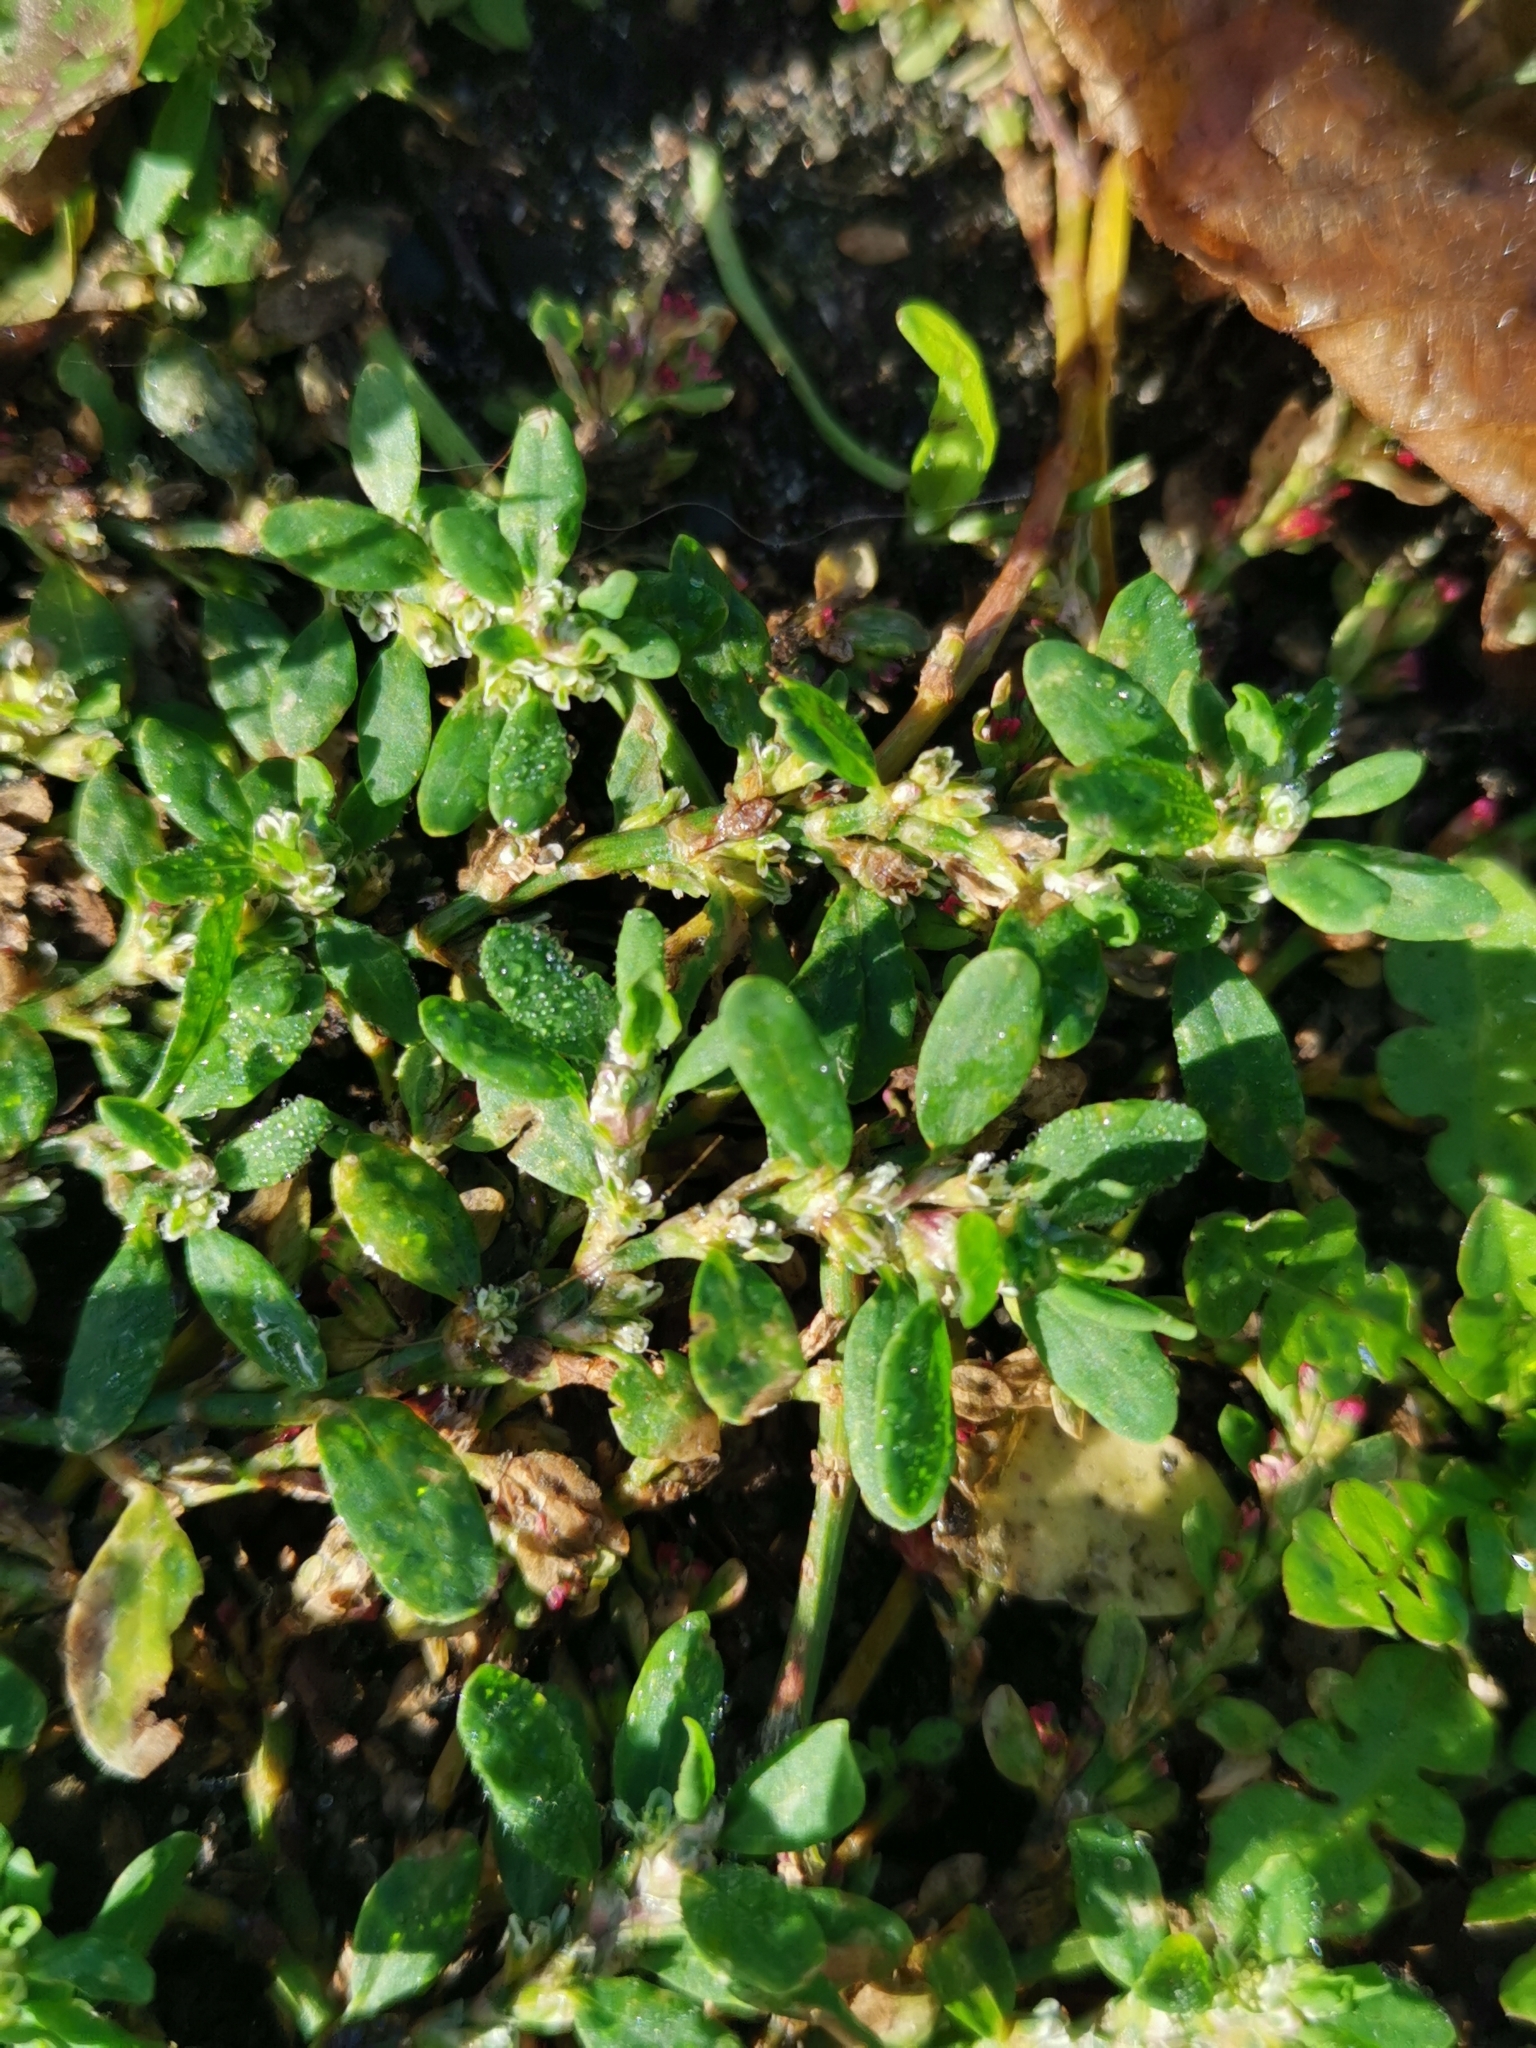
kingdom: Plantae
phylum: Tracheophyta
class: Magnoliopsida
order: Caryophyllales
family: Polygonaceae
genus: Polygonum
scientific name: Polygonum arenastrum
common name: Equal-leaved knotgrass
